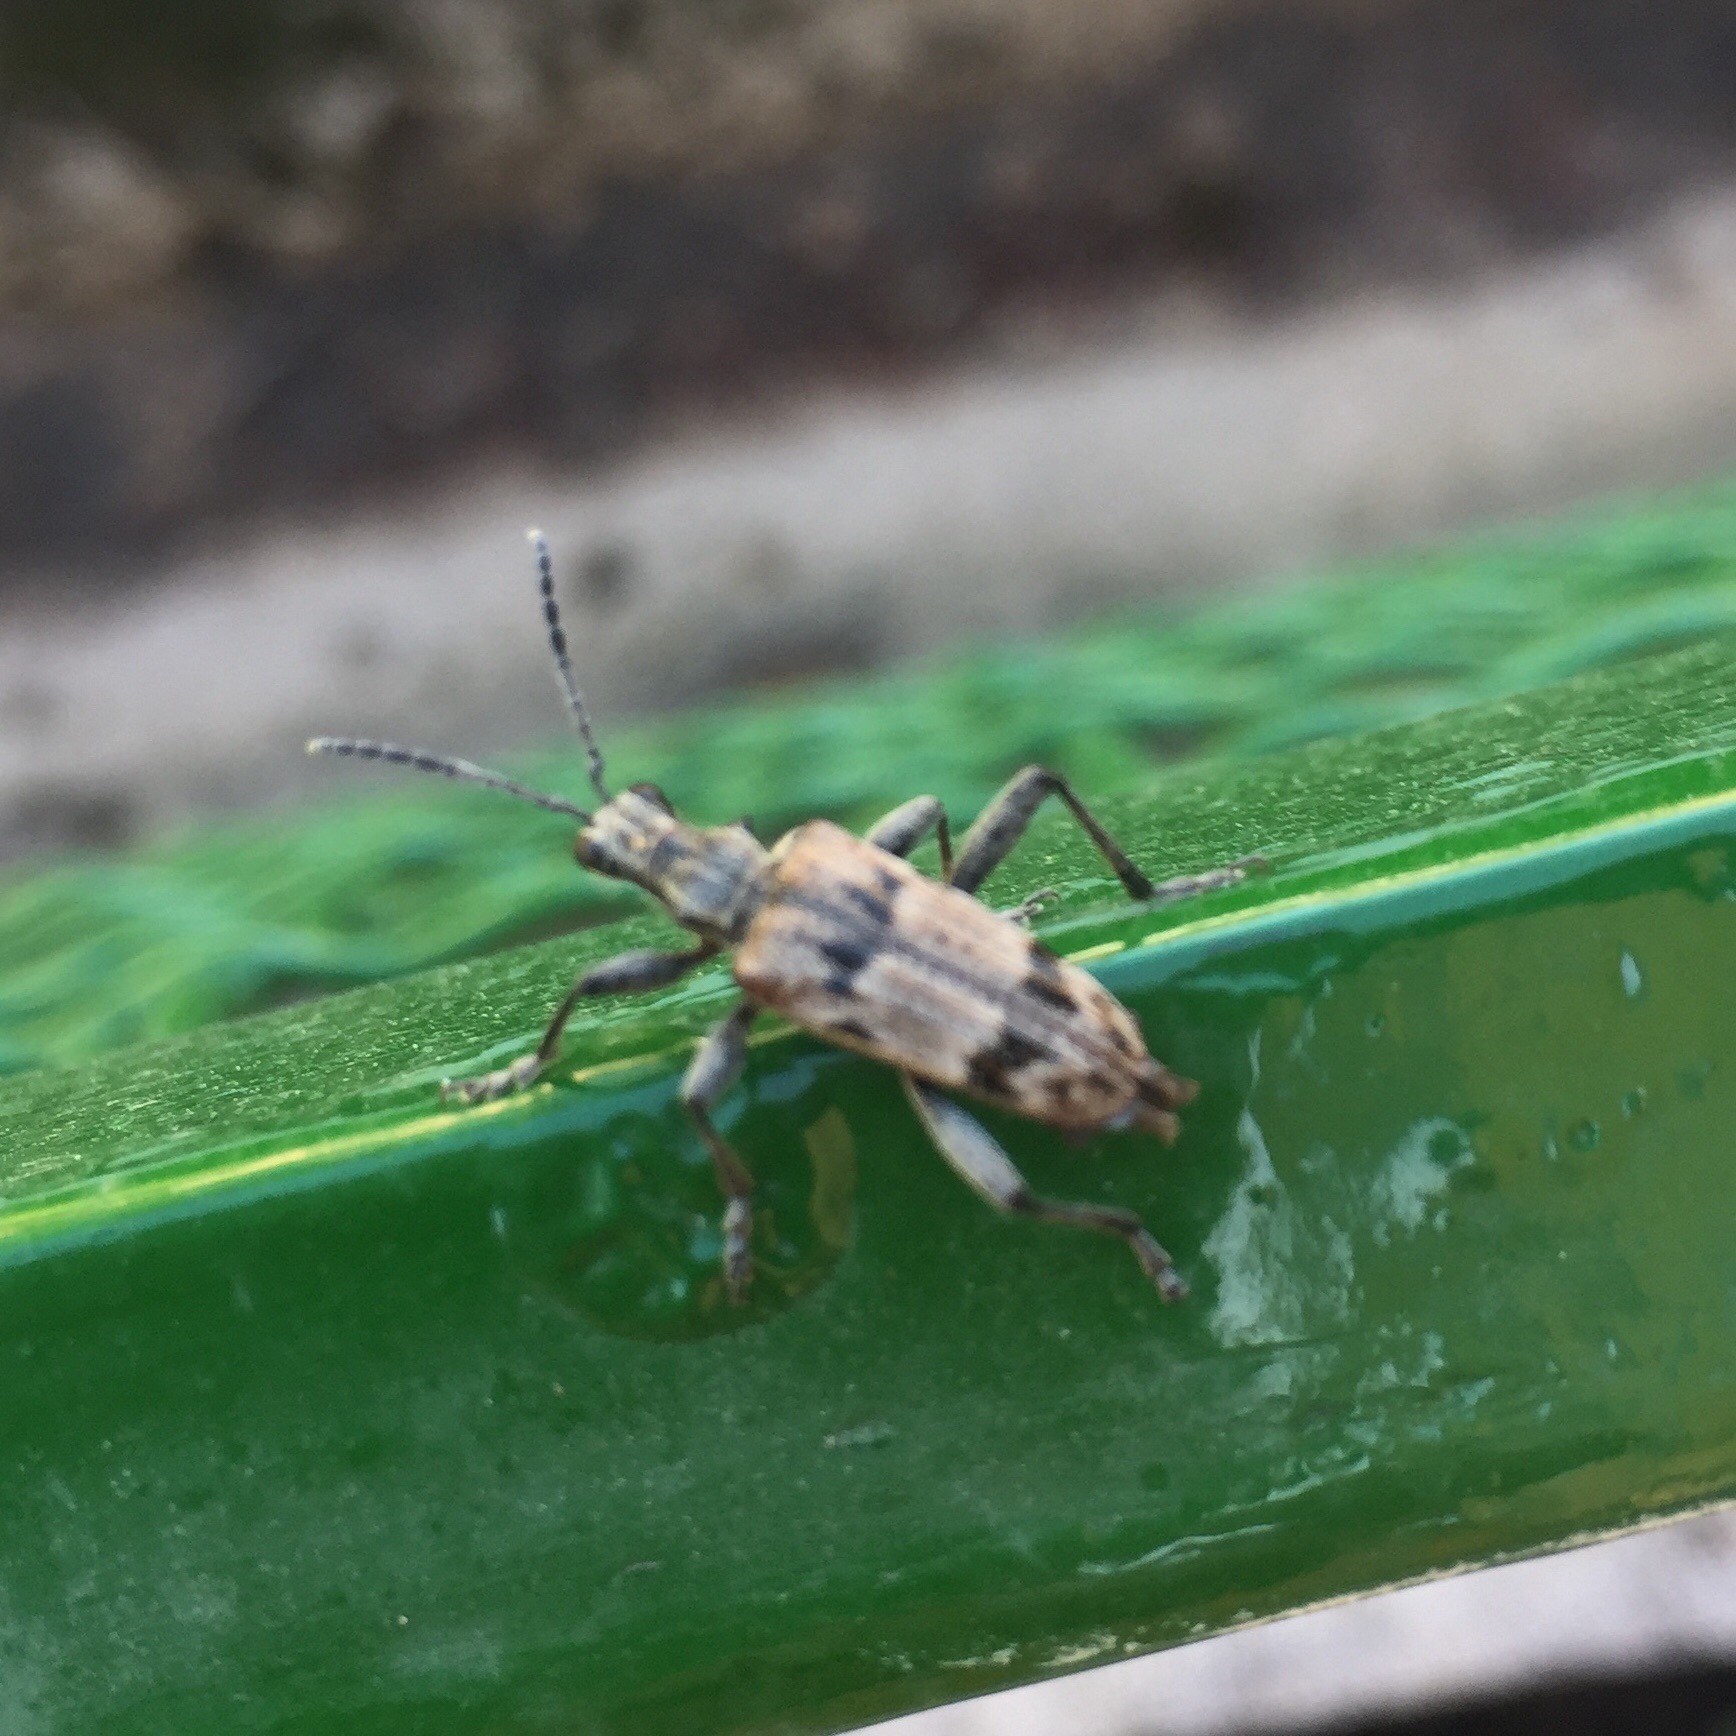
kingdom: Animalia
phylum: Arthropoda
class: Insecta
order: Coleoptera
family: Cerambycidae
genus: Rhagium
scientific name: Rhagium inquisitor
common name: Ribbed pine borer
